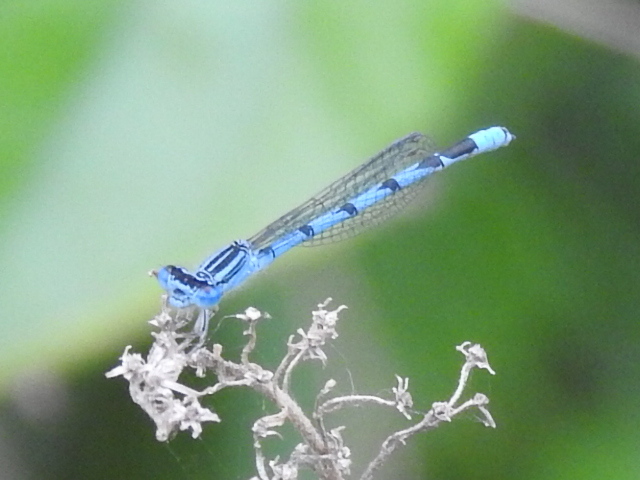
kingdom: Animalia
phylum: Arthropoda
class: Insecta
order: Odonata
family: Coenagrionidae
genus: Enallagma
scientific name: Enallagma basidens
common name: Double-striped bluet
